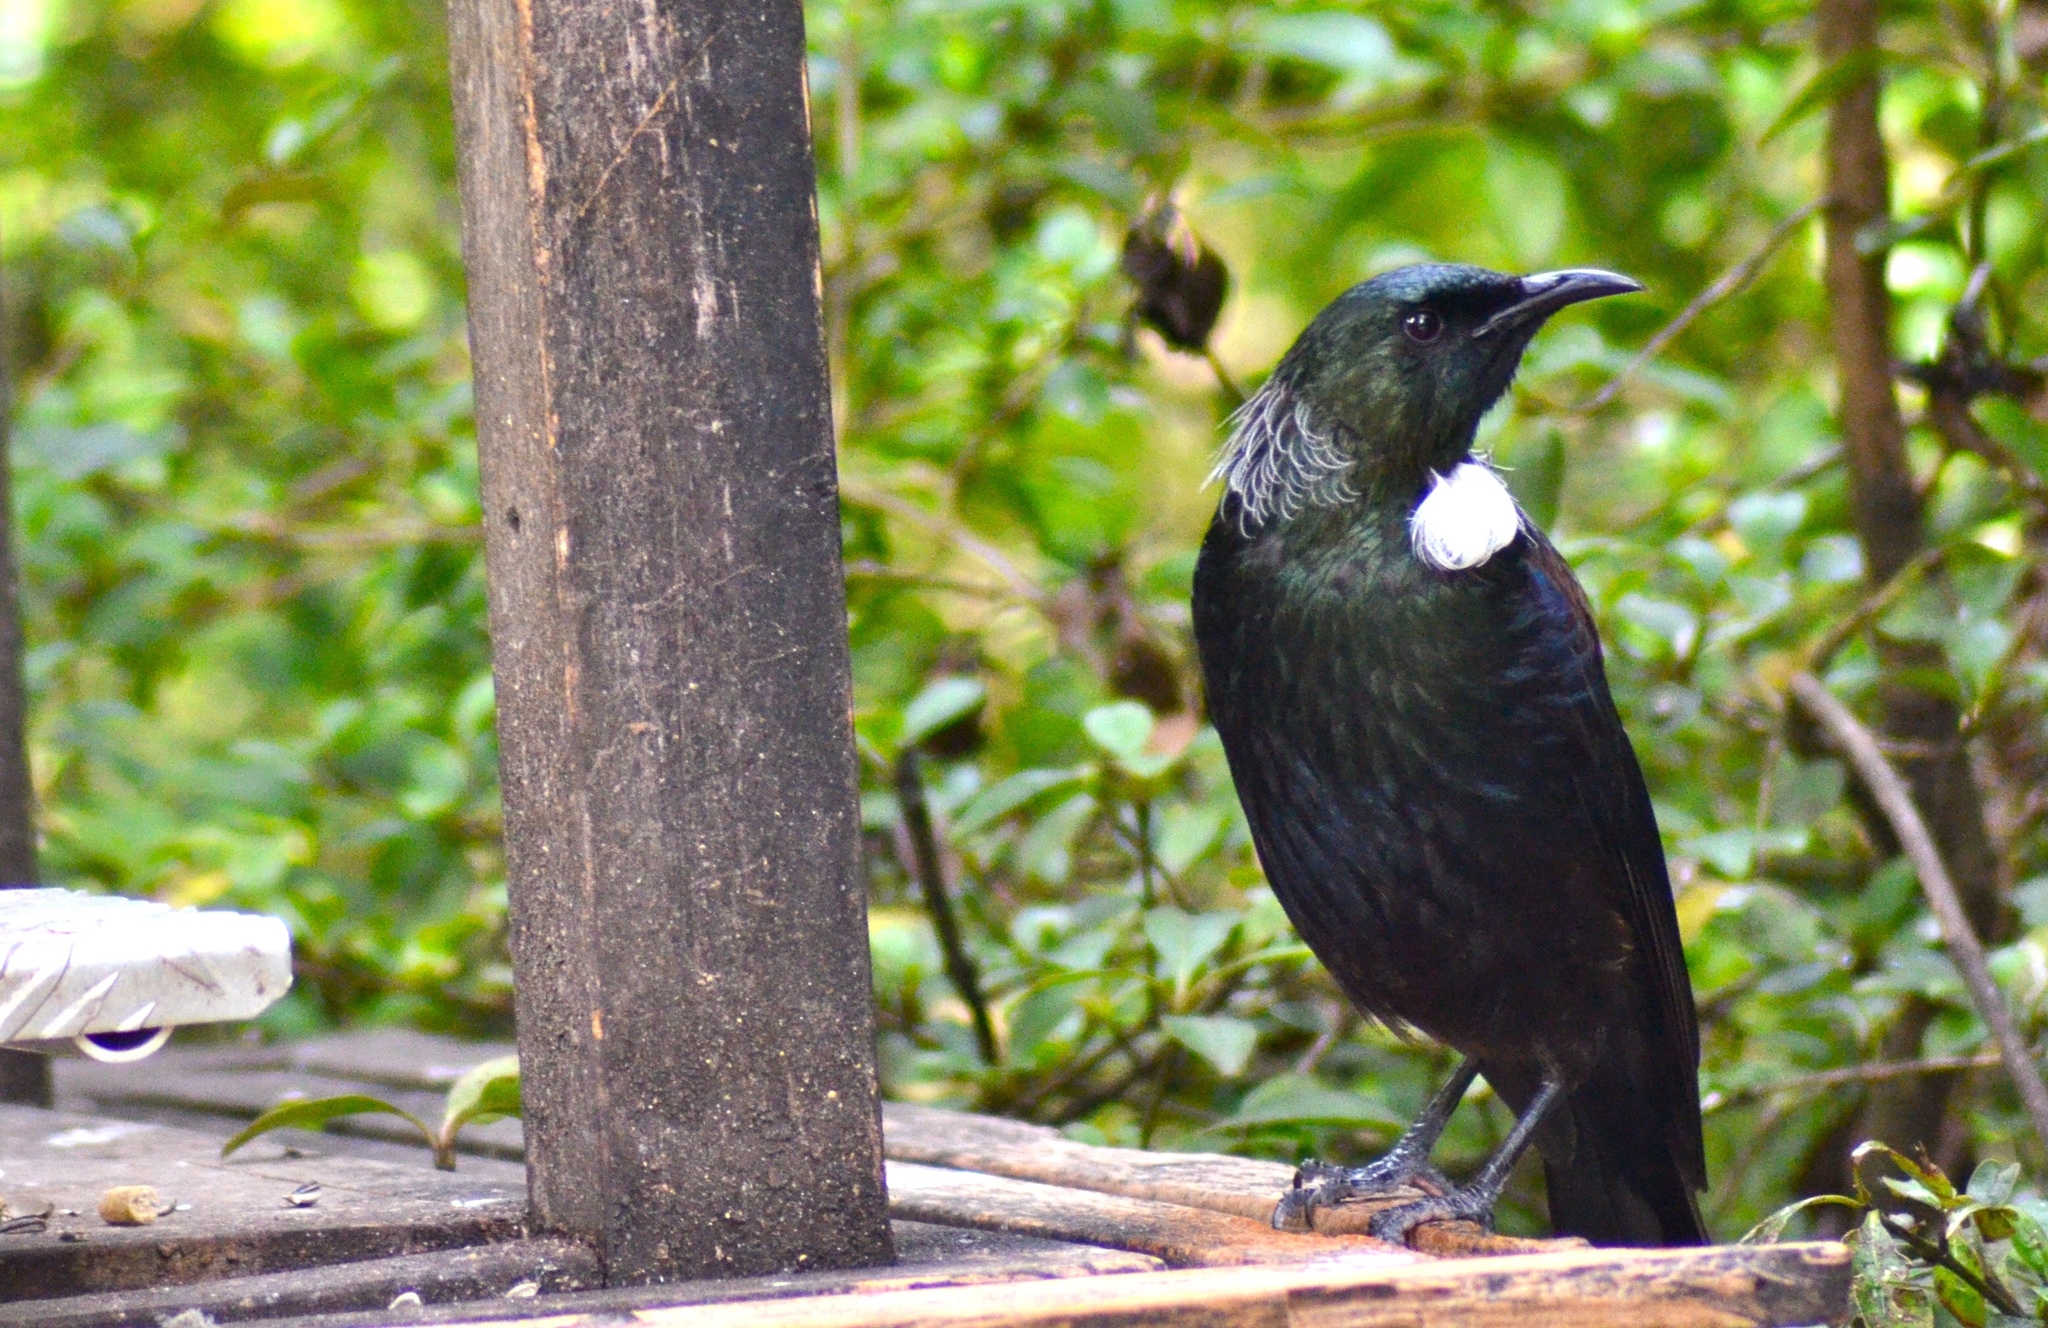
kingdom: Animalia
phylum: Chordata
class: Aves
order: Passeriformes
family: Meliphagidae
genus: Prosthemadera
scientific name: Prosthemadera novaeseelandiae
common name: Tui
